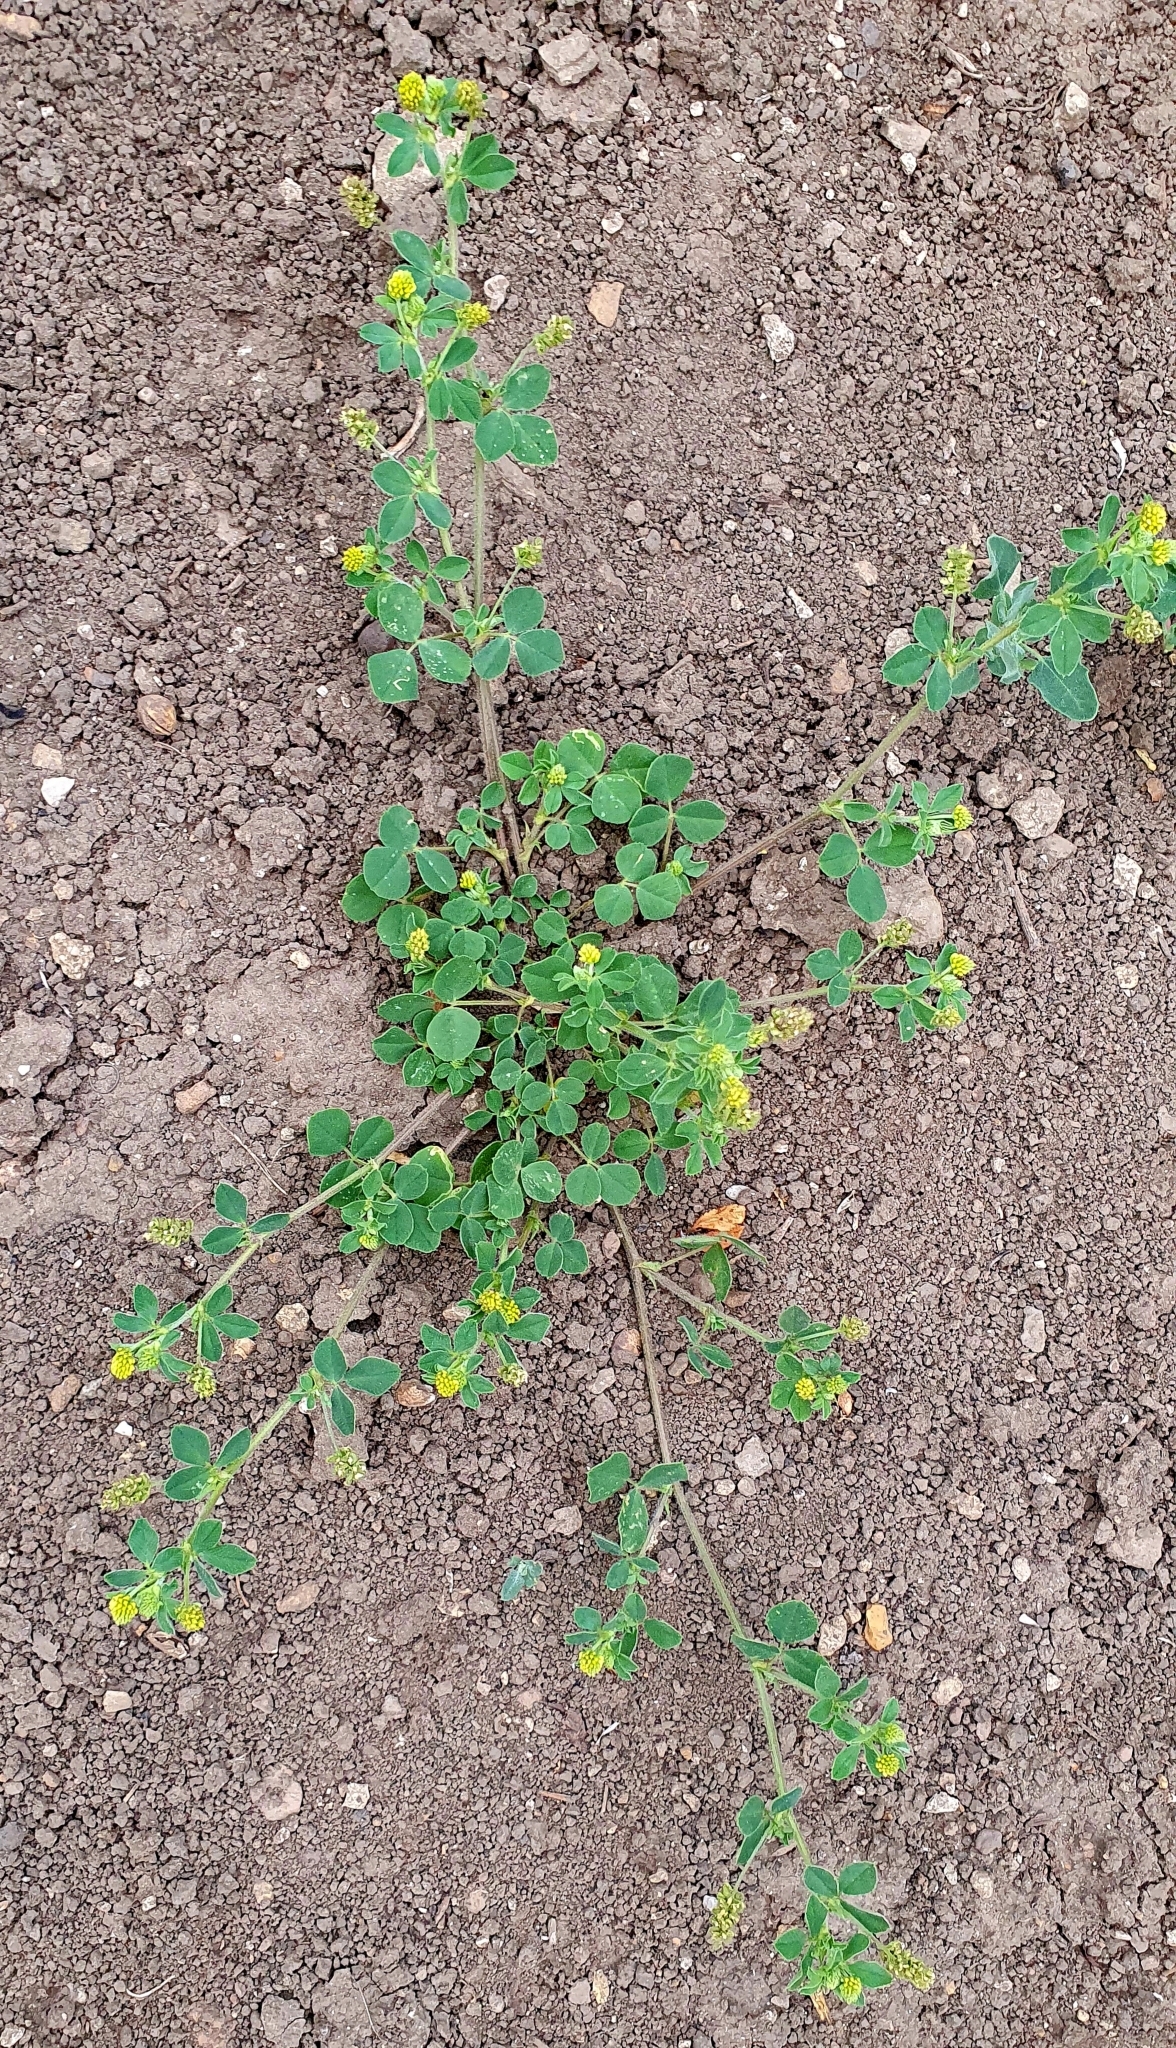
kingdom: Plantae
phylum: Tracheophyta
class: Magnoliopsida
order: Fabales
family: Fabaceae
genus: Medicago
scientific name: Medicago lupulina
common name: Black medick
